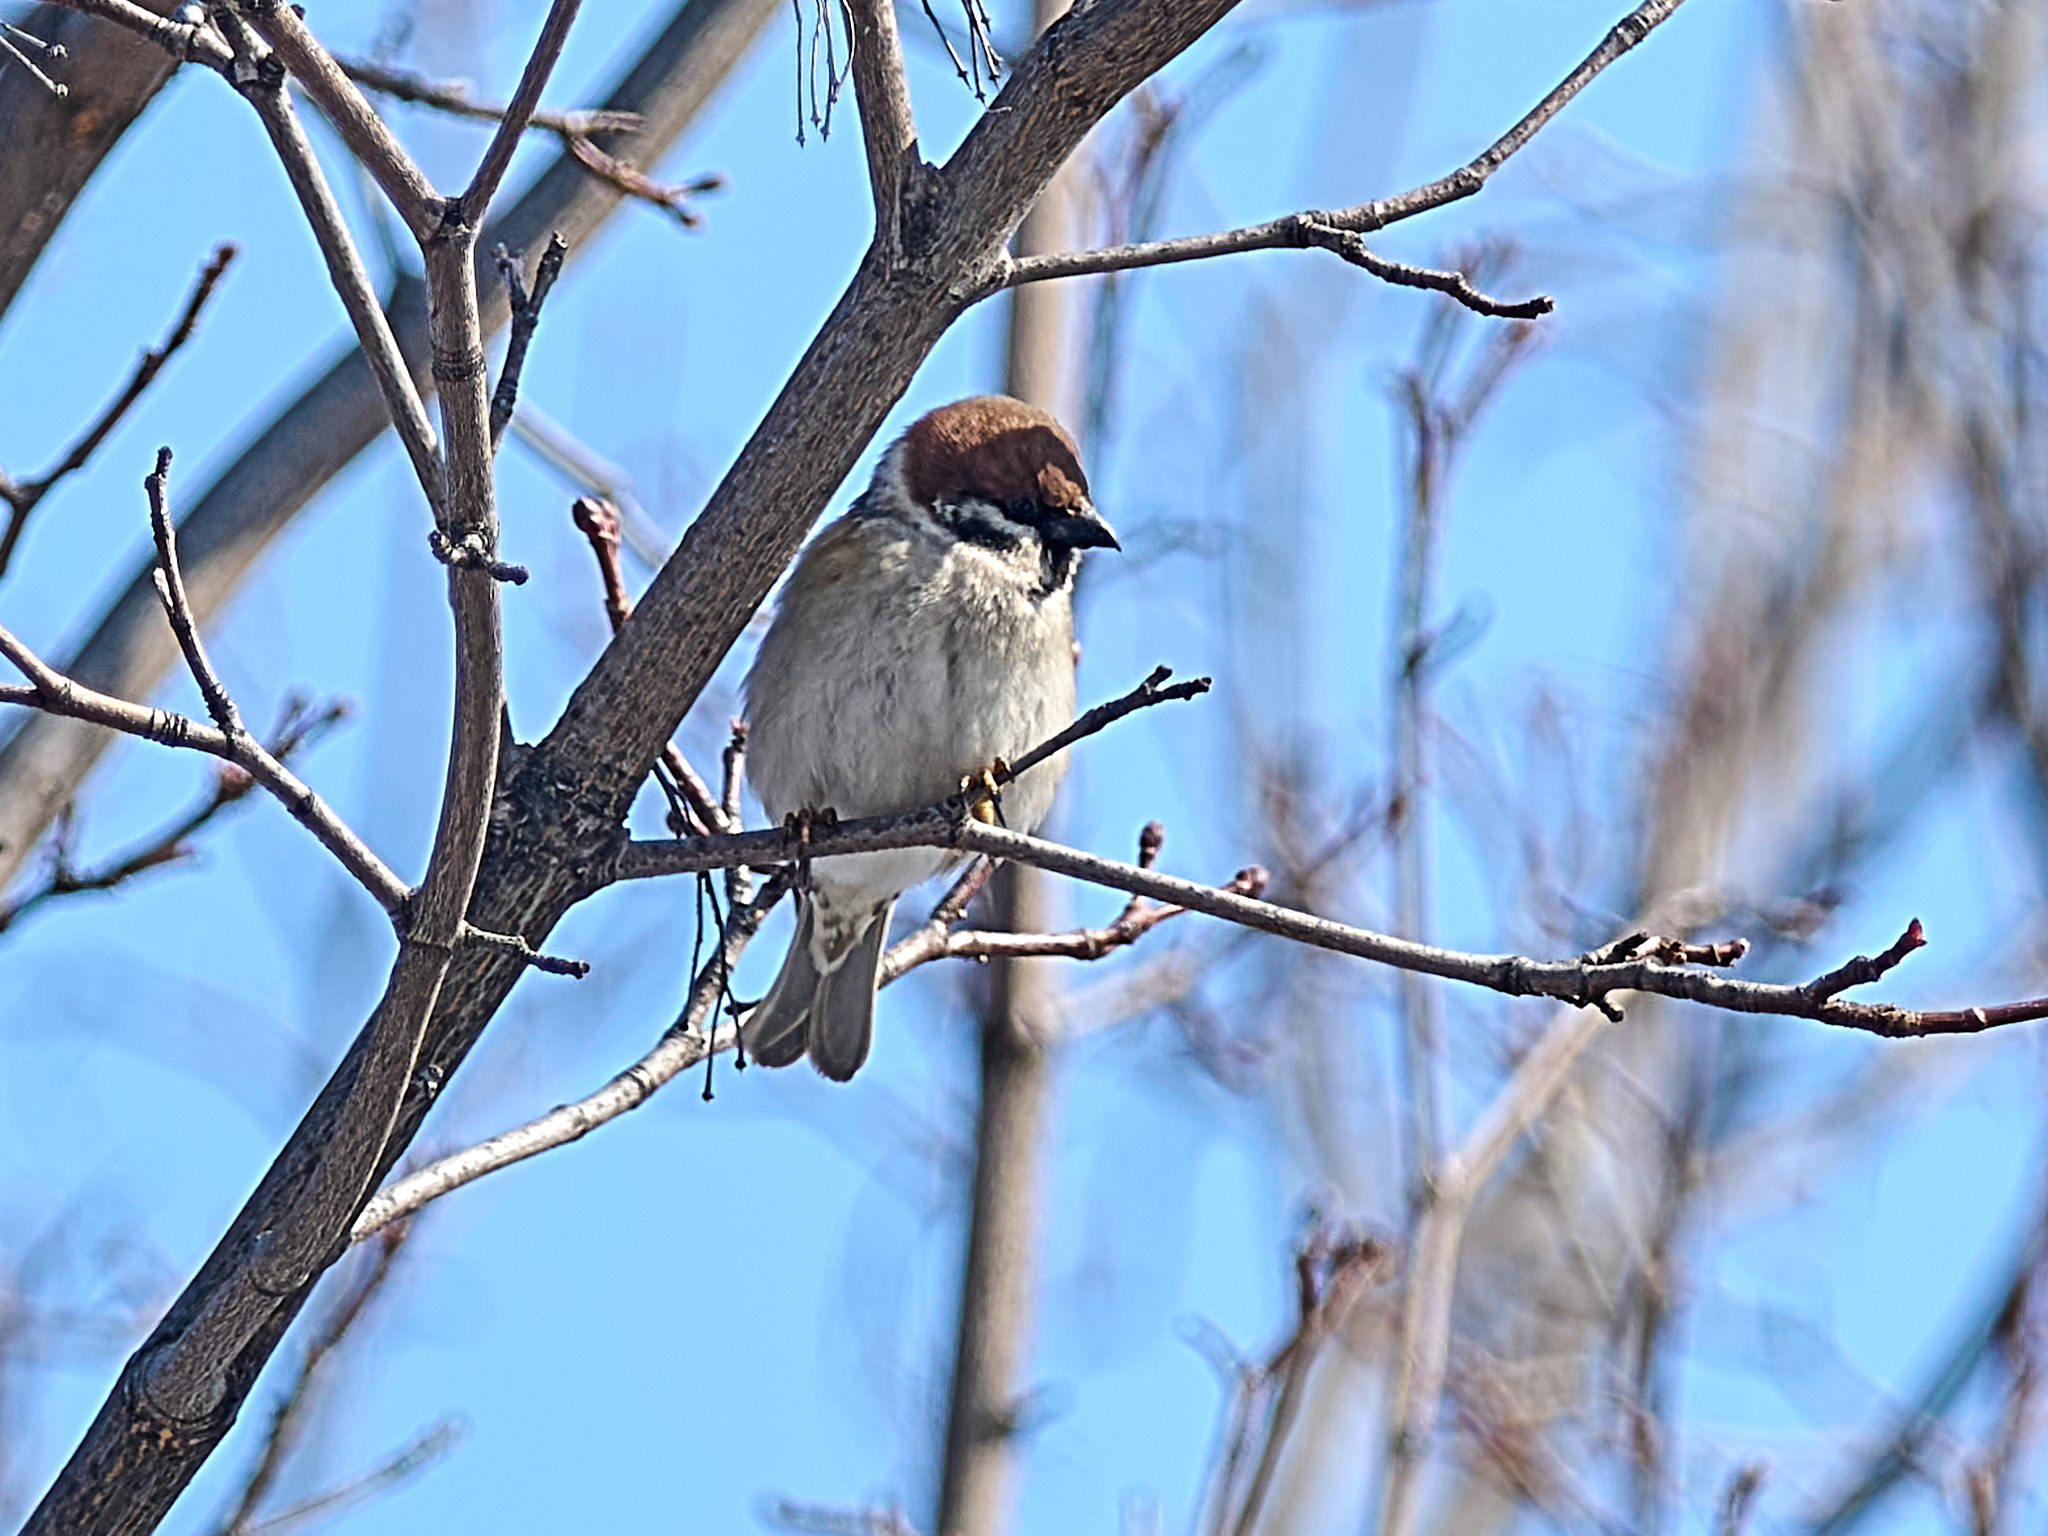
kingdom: Animalia
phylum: Chordata
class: Aves
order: Passeriformes
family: Passeridae
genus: Passer
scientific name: Passer montanus
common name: Eurasian tree sparrow
